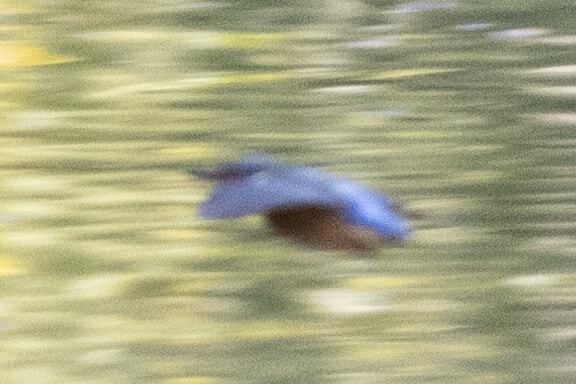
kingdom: Animalia
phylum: Chordata
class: Aves
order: Coraciiformes
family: Alcedinidae
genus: Alcedo
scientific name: Alcedo atthis
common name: Common kingfisher
